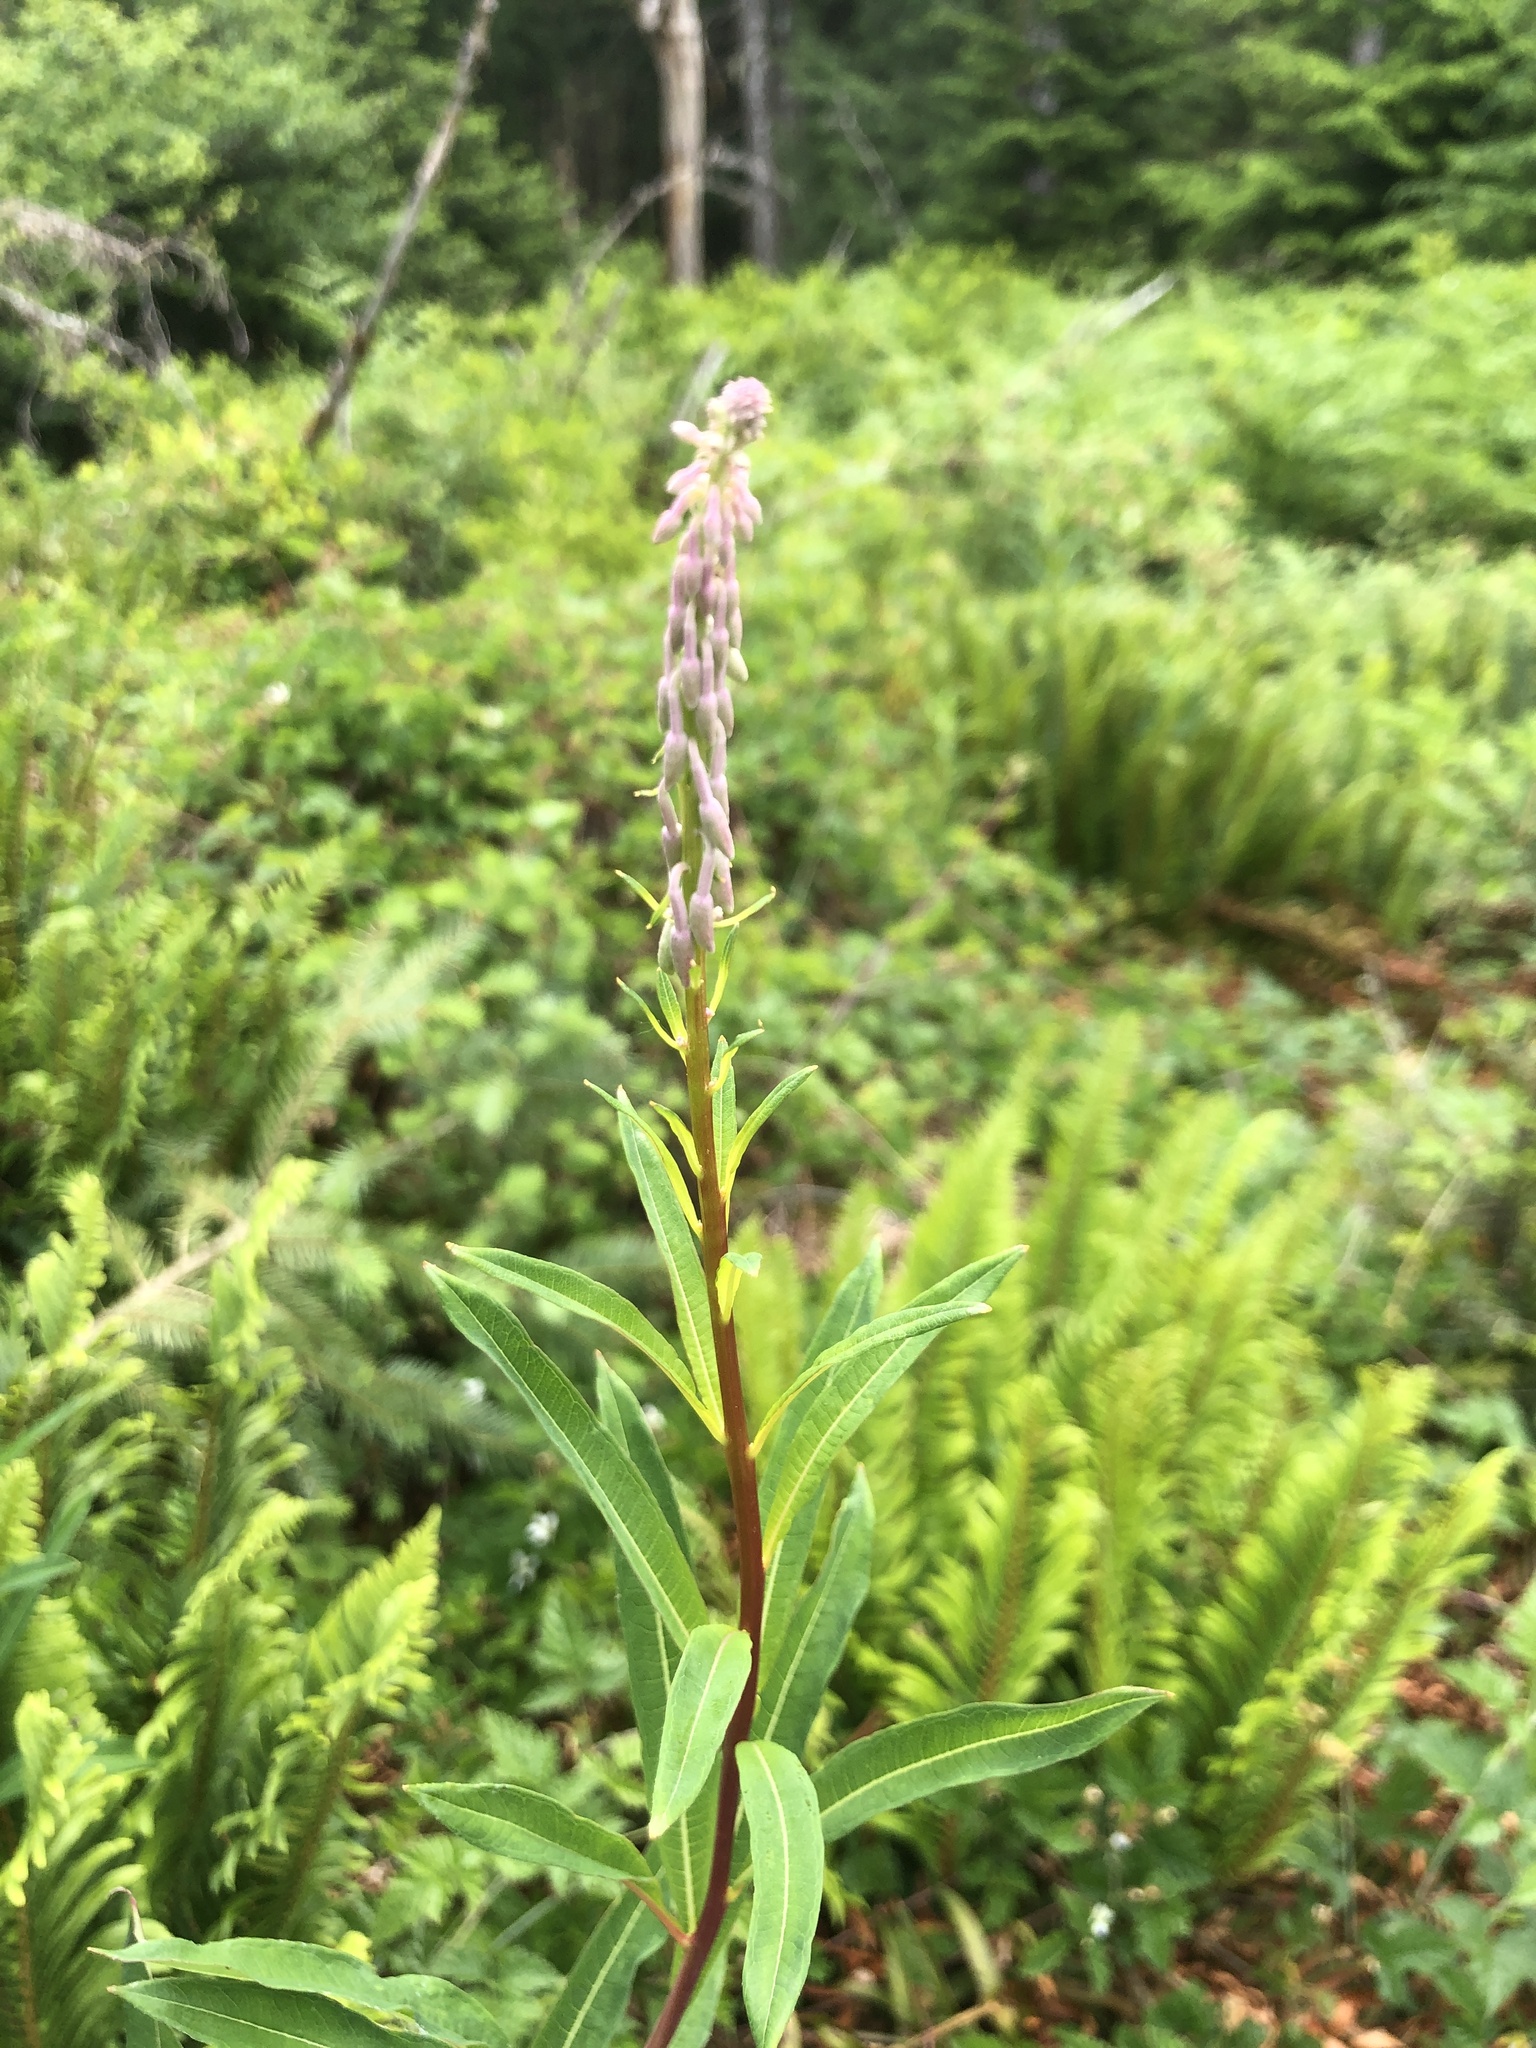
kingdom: Plantae
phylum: Tracheophyta
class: Magnoliopsida
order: Myrtales
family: Onagraceae
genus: Chamaenerion
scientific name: Chamaenerion angustifolium
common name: Fireweed
